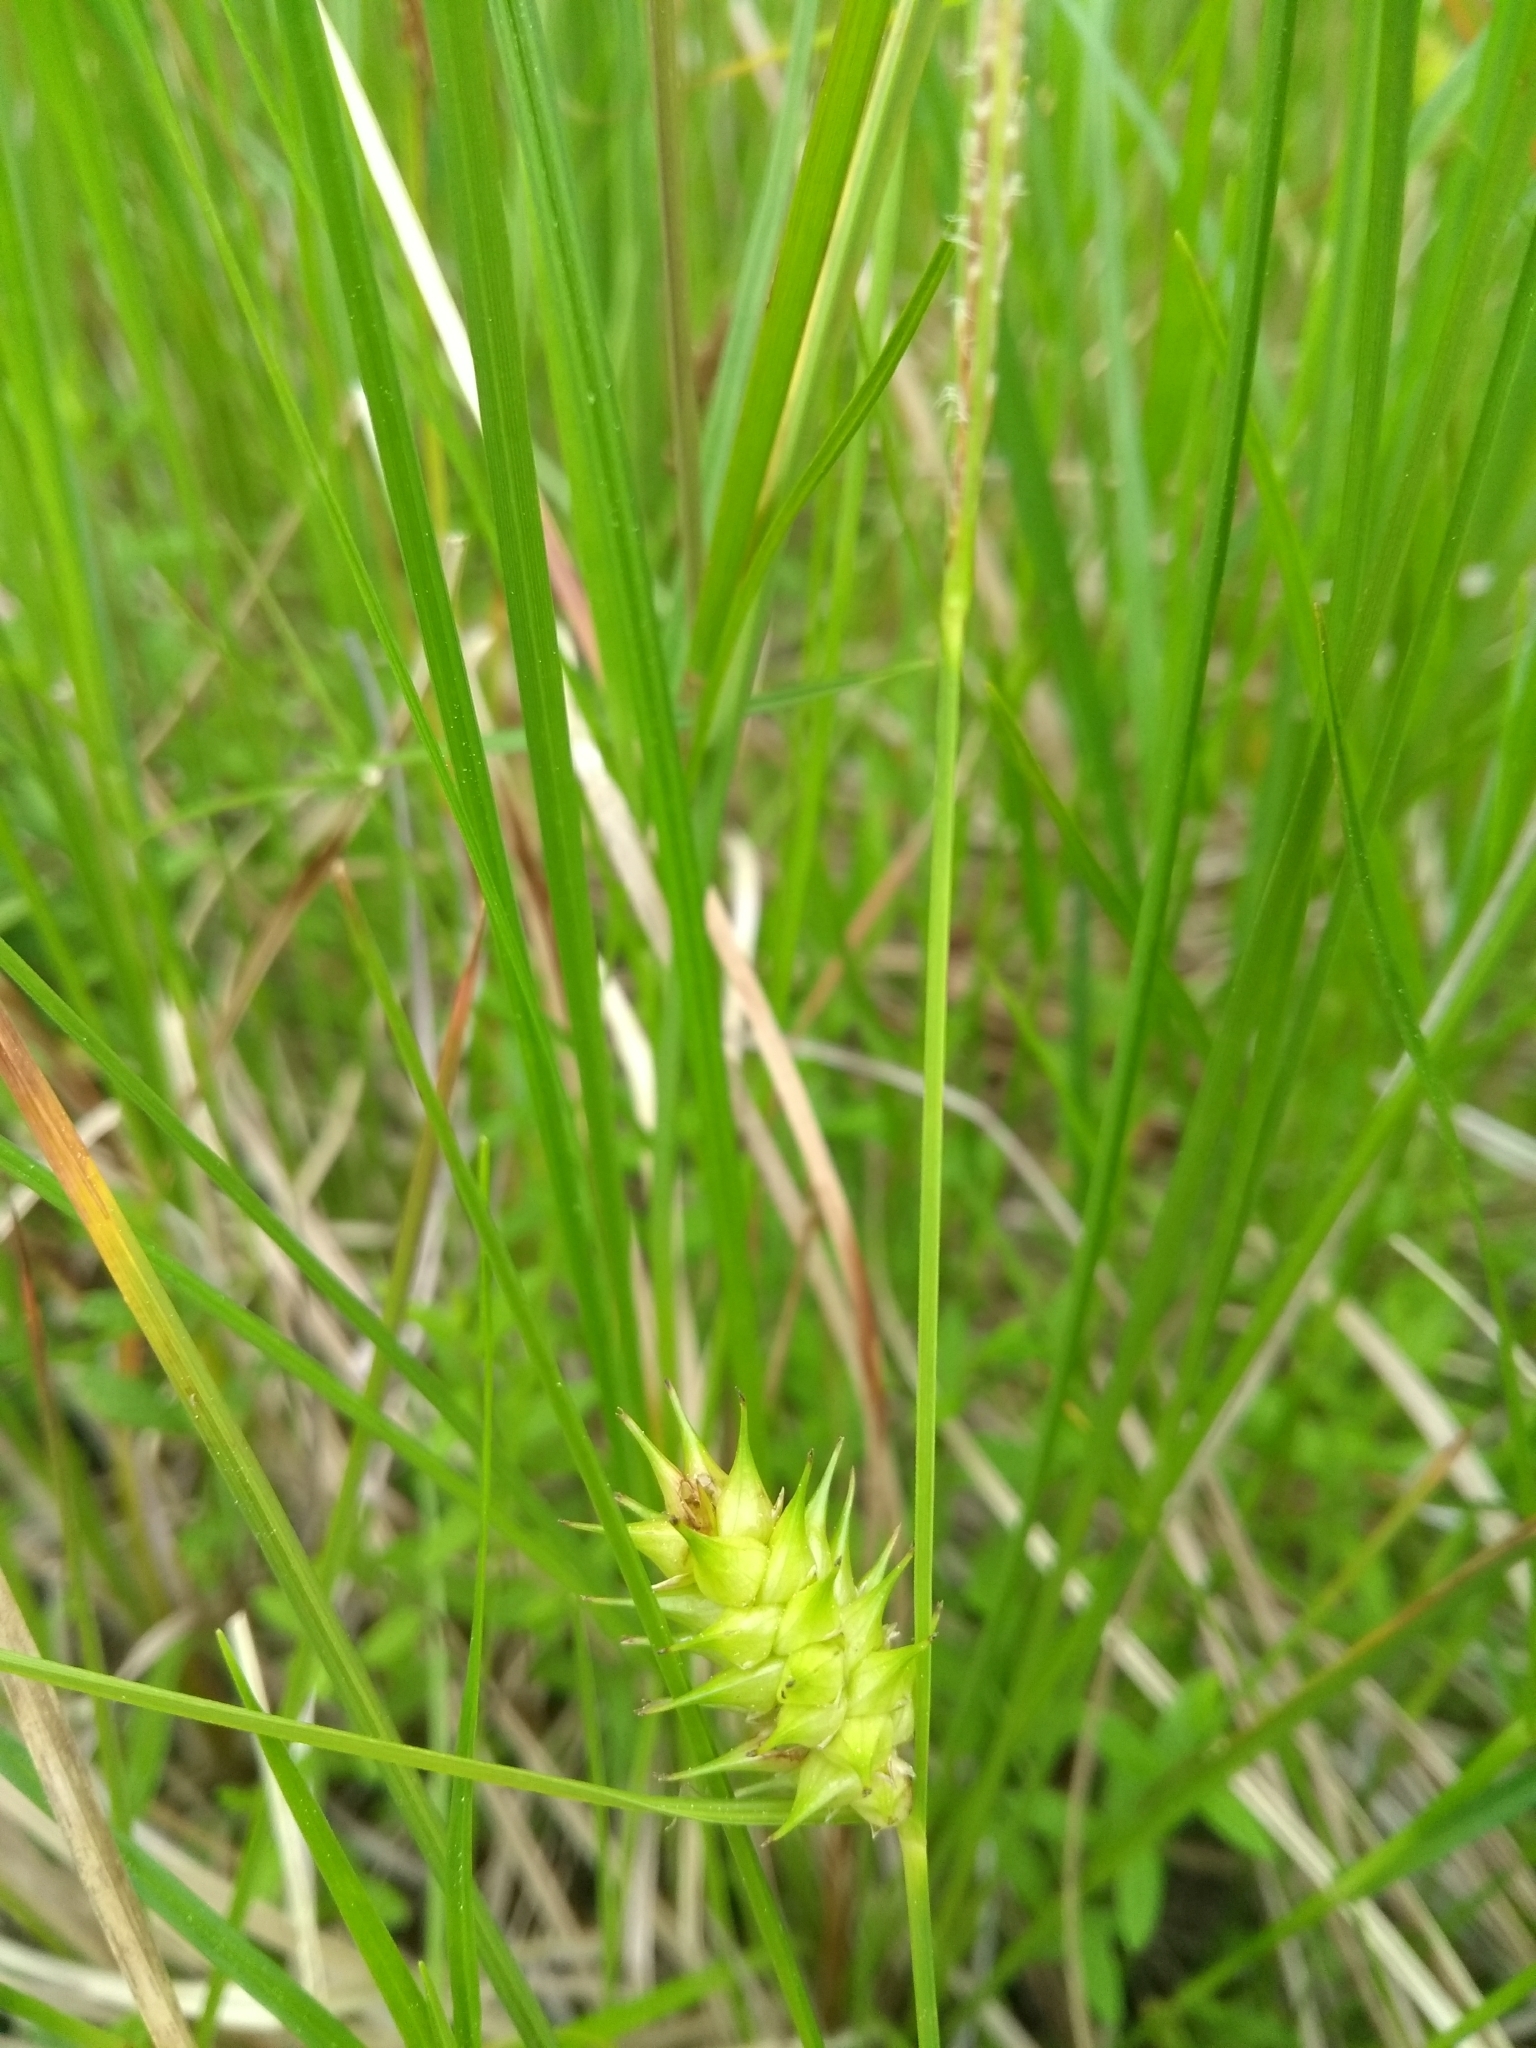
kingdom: Plantae
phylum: Tracheophyta
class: Liliopsida
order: Poales
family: Cyperaceae
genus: Carex
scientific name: Carex bullata
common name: Button sedge
